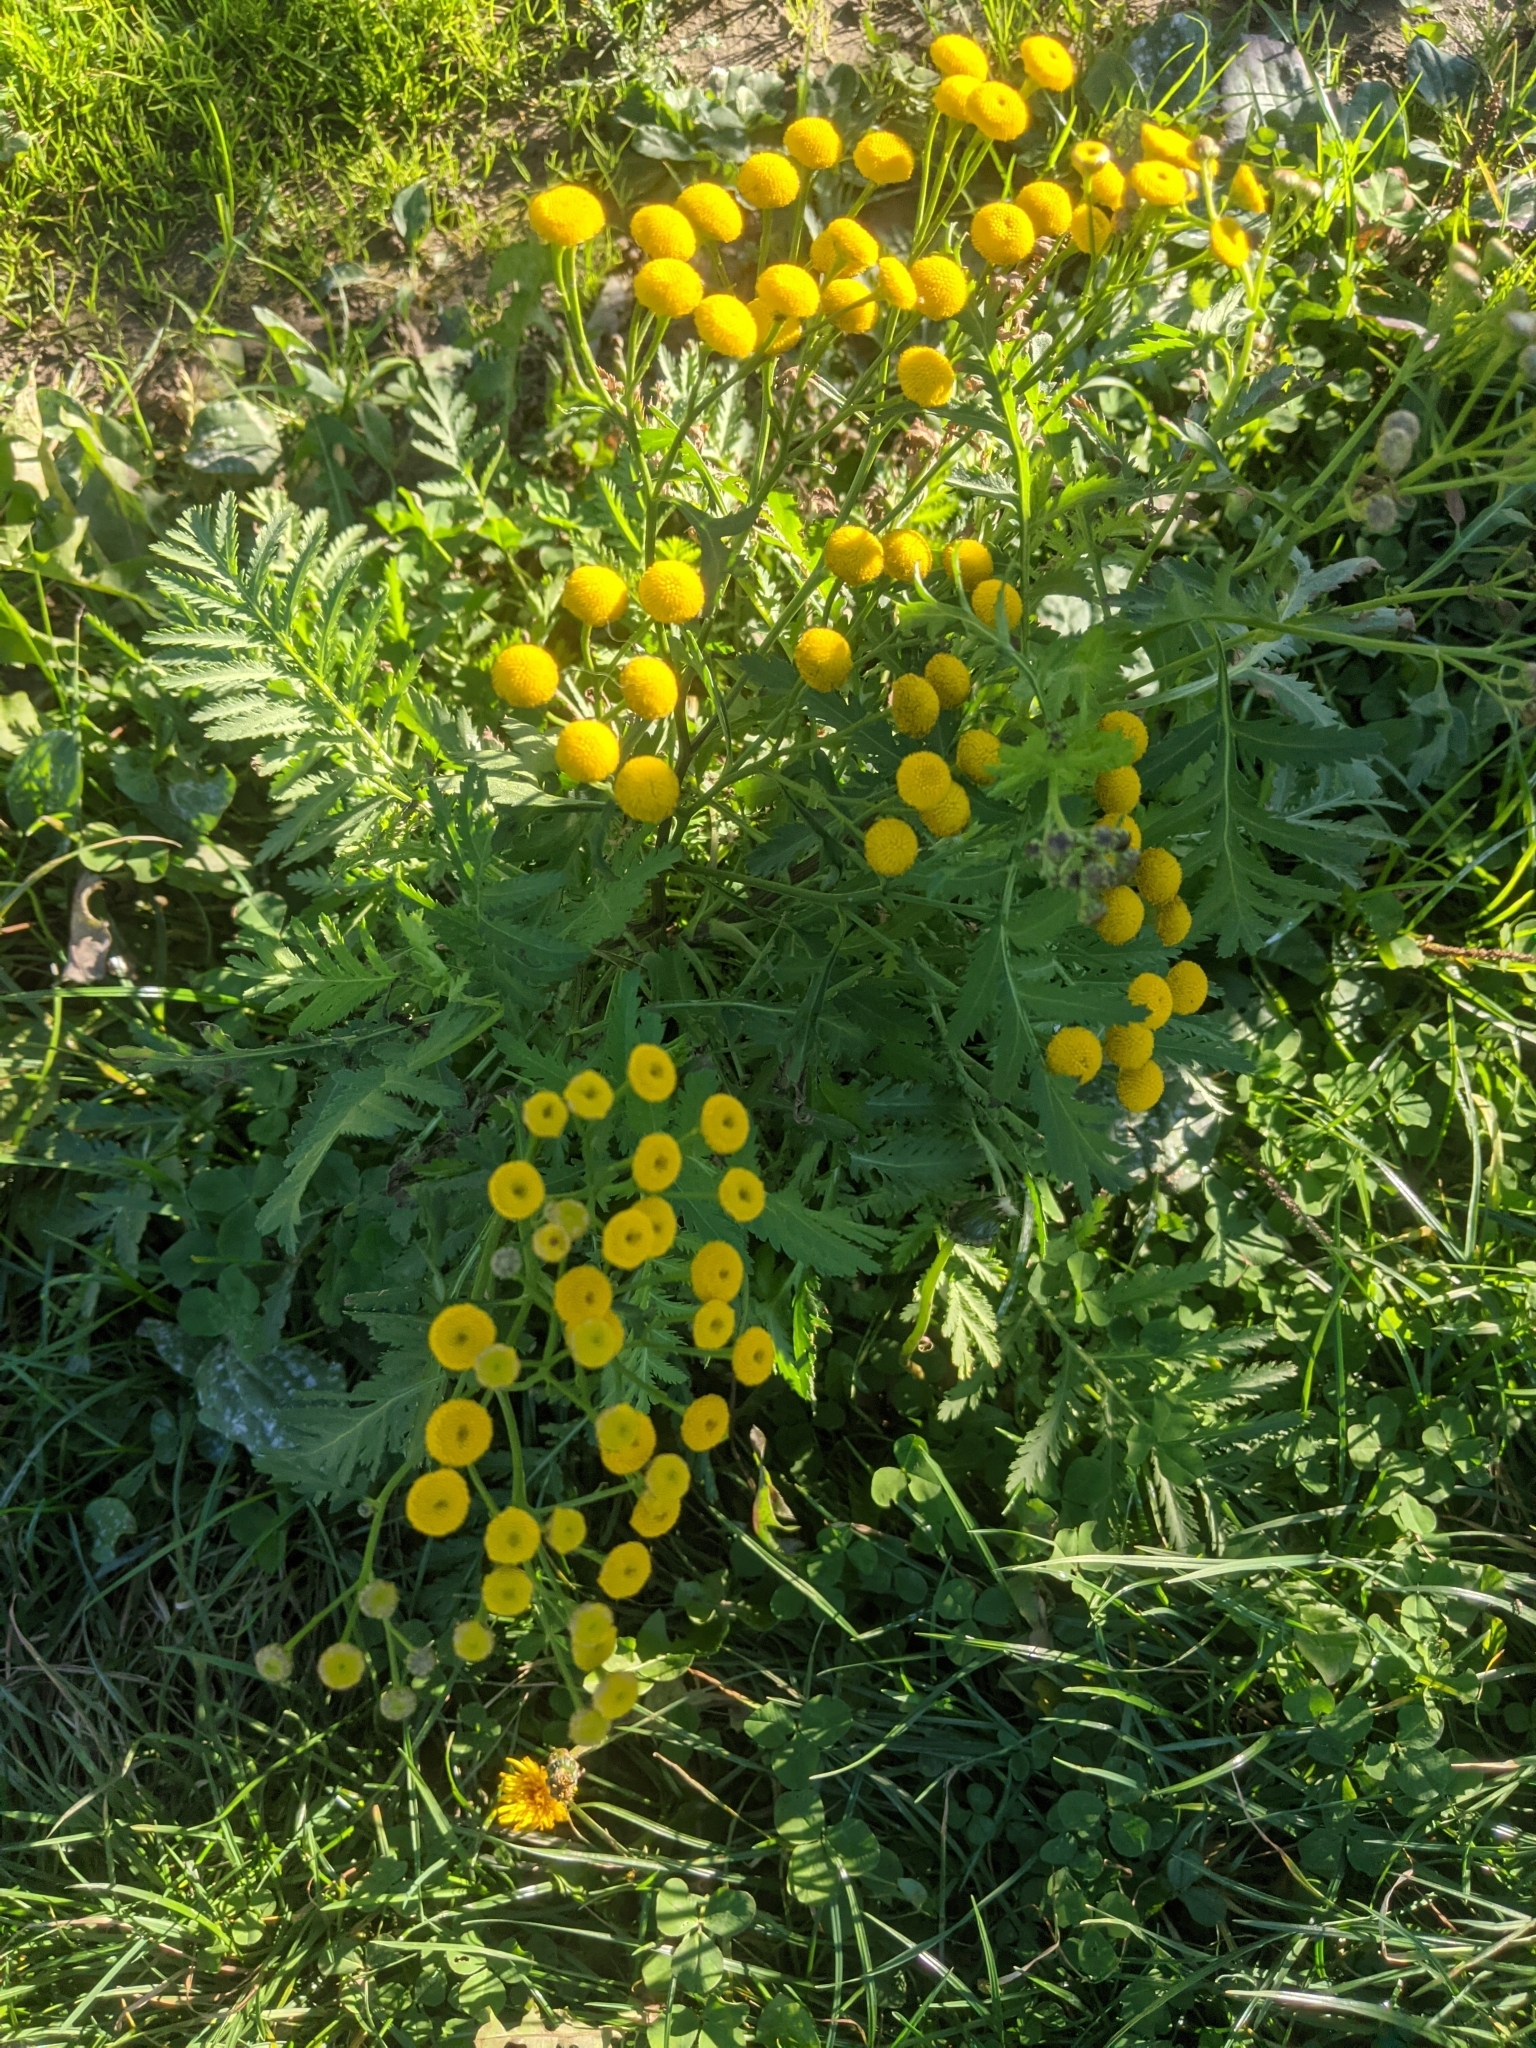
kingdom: Plantae
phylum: Tracheophyta
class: Magnoliopsida
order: Asterales
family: Asteraceae
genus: Tanacetum
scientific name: Tanacetum vulgare
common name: Common tansy
